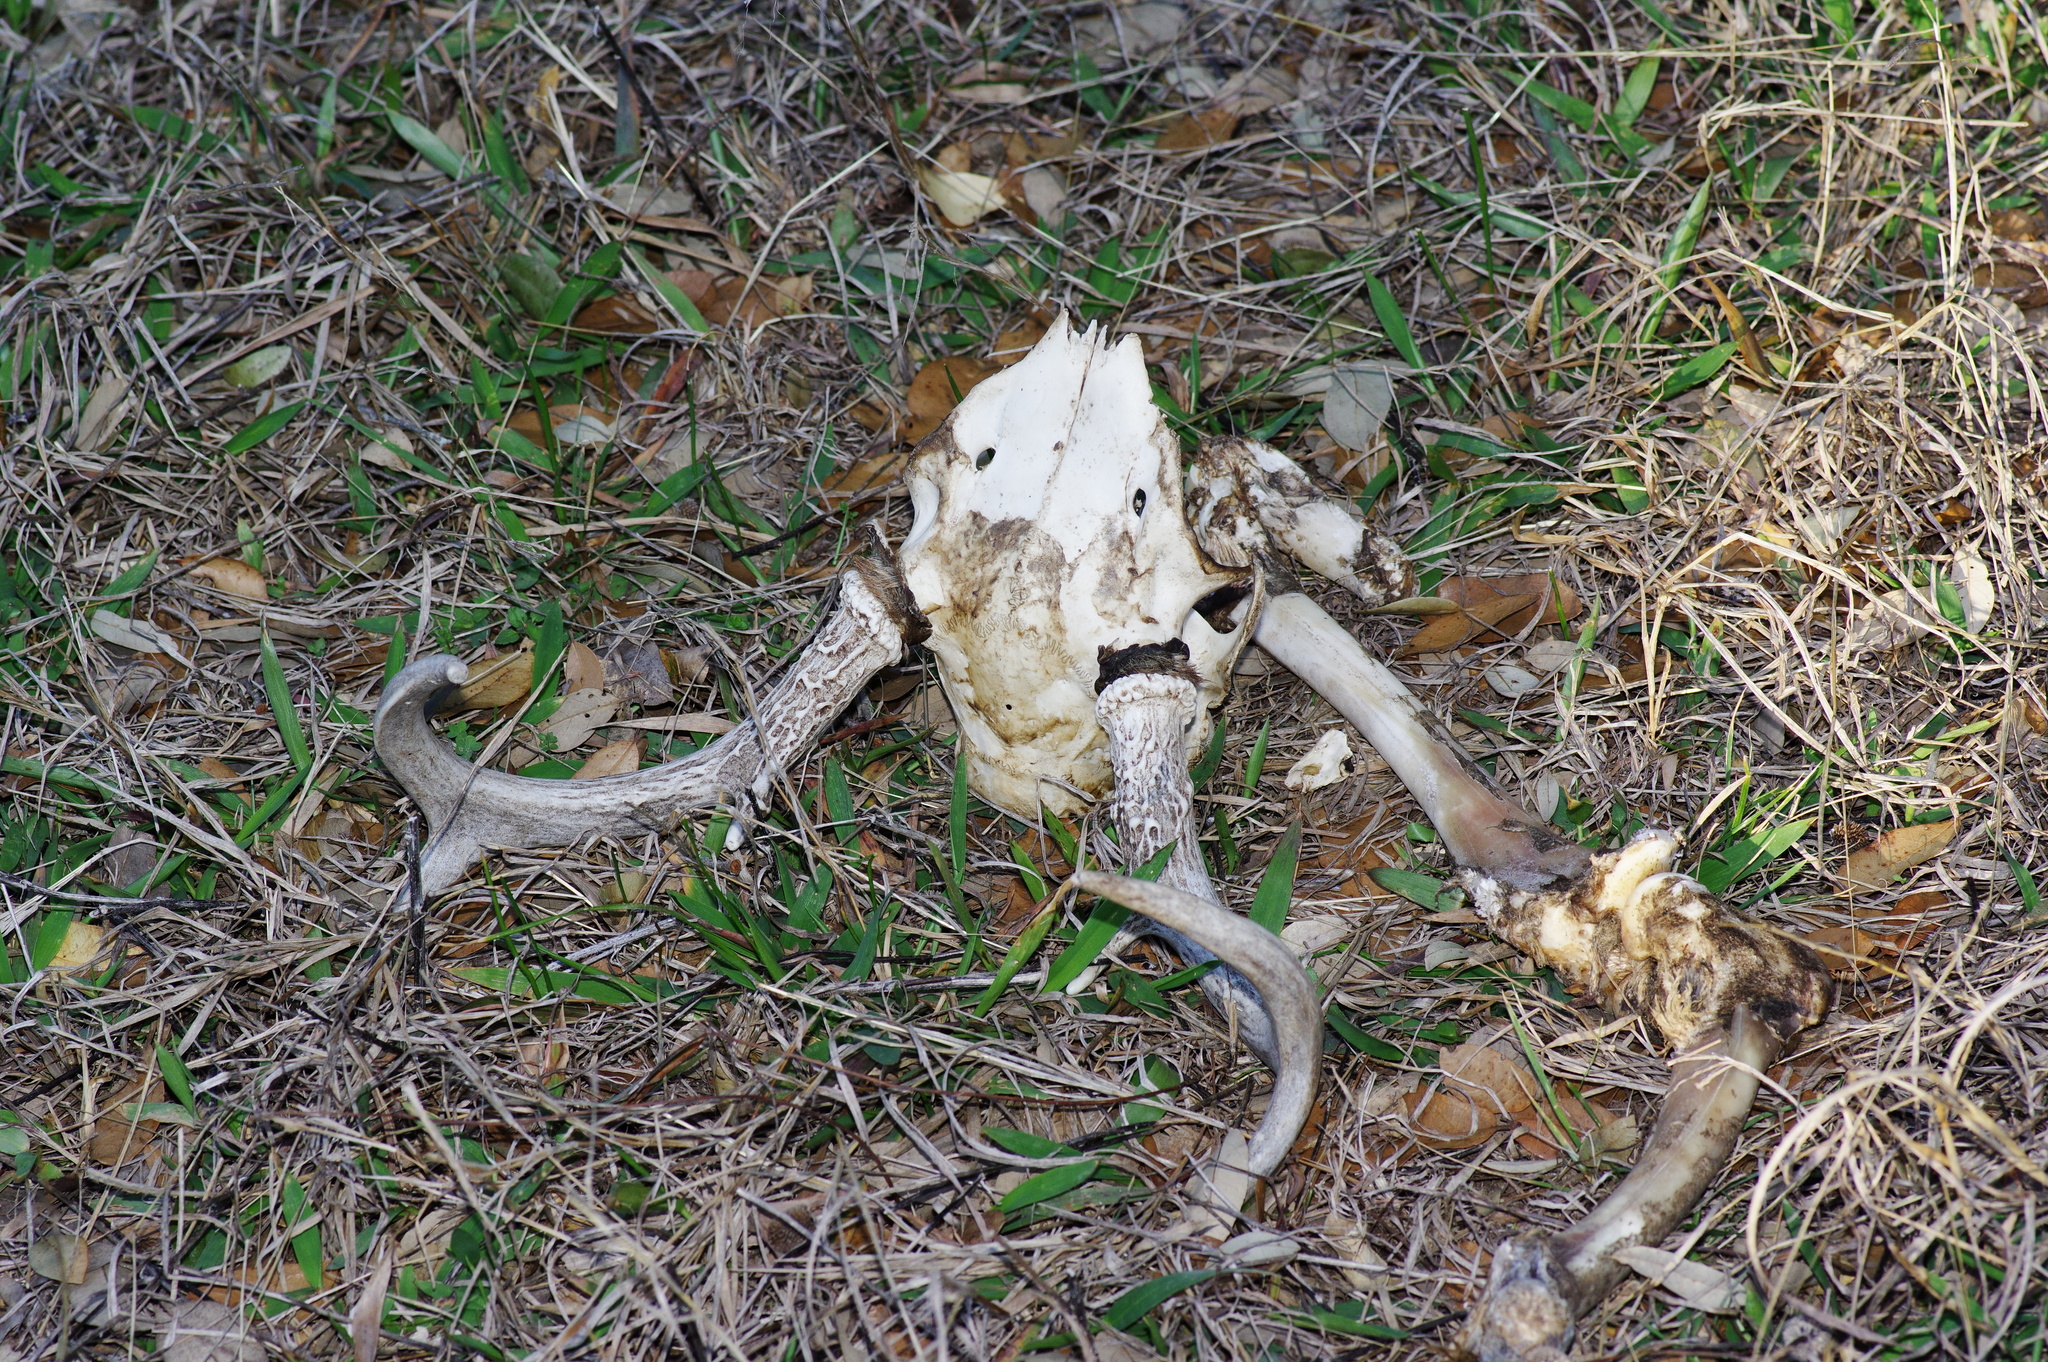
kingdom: Animalia
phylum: Chordata
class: Mammalia
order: Artiodactyla
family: Cervidae
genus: Odocoileus
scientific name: Odocoileus virginianus
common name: White-tailed deer
